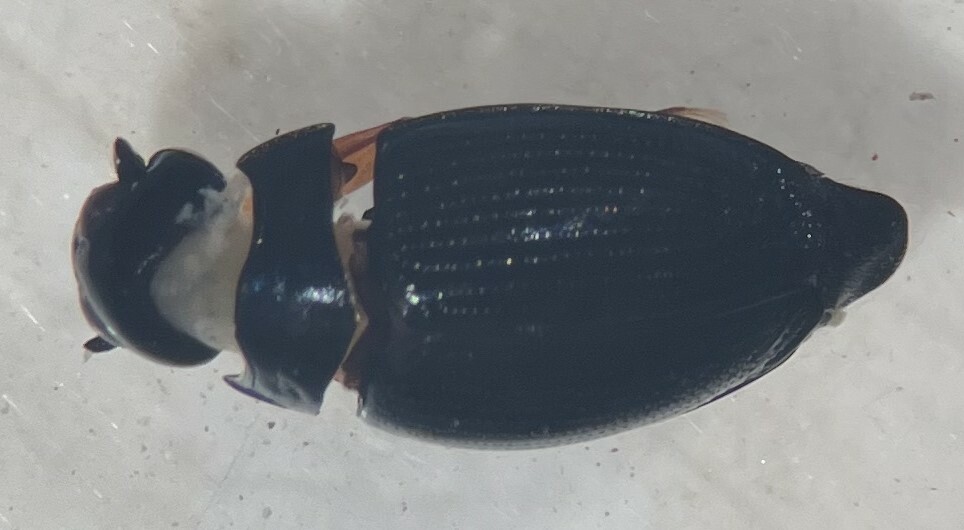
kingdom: Animalia
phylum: Arthropoda
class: Insecta
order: Coleoptera
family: Gyrinidae
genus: Gyrinus
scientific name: Gyrinus parcus
